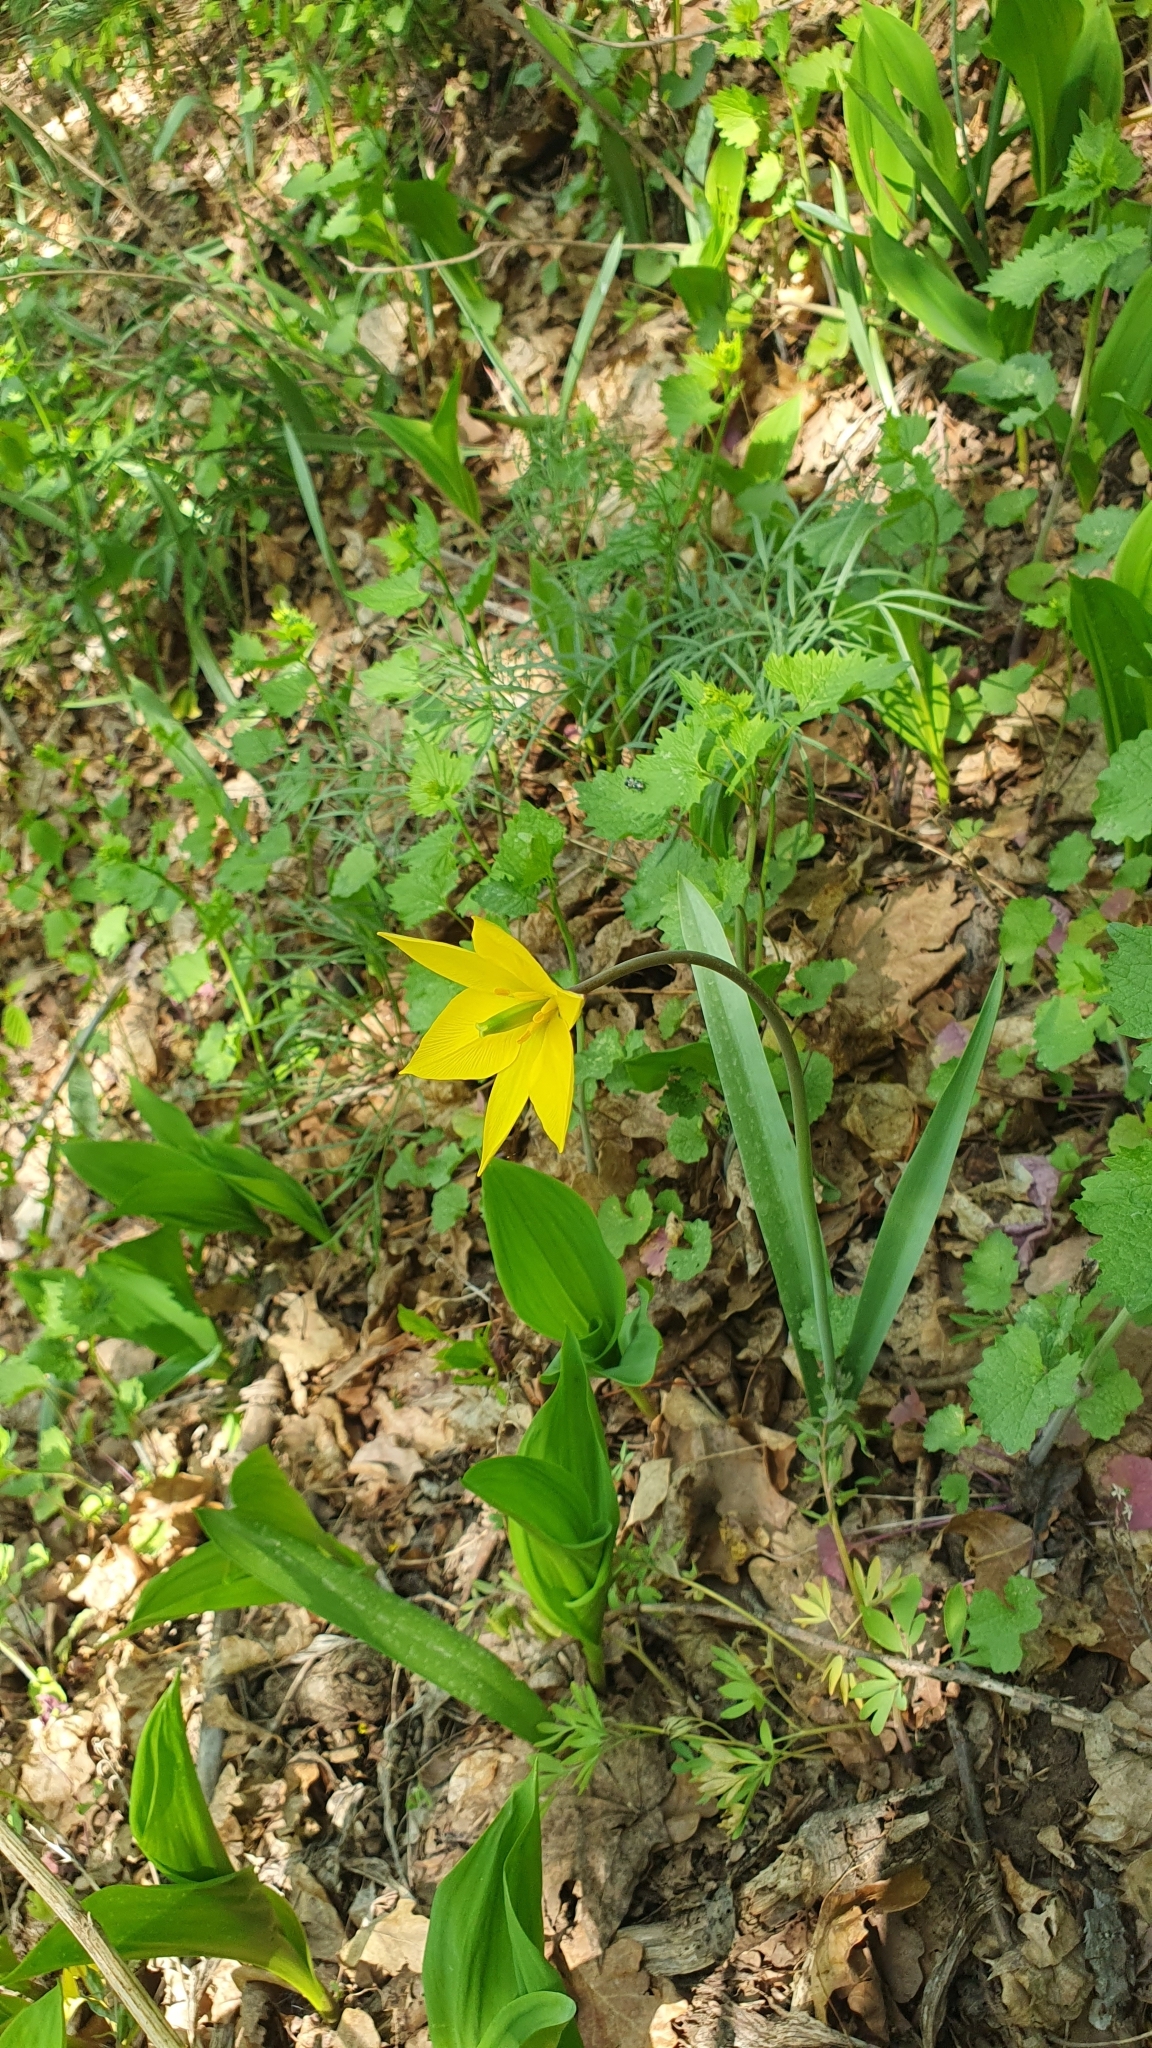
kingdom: Plantae
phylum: Tracheophyta
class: Liliopsida
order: Liliales
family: Liliaceae
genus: Tulipa
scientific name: Tulipa sylvestris
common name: Wild tulip
